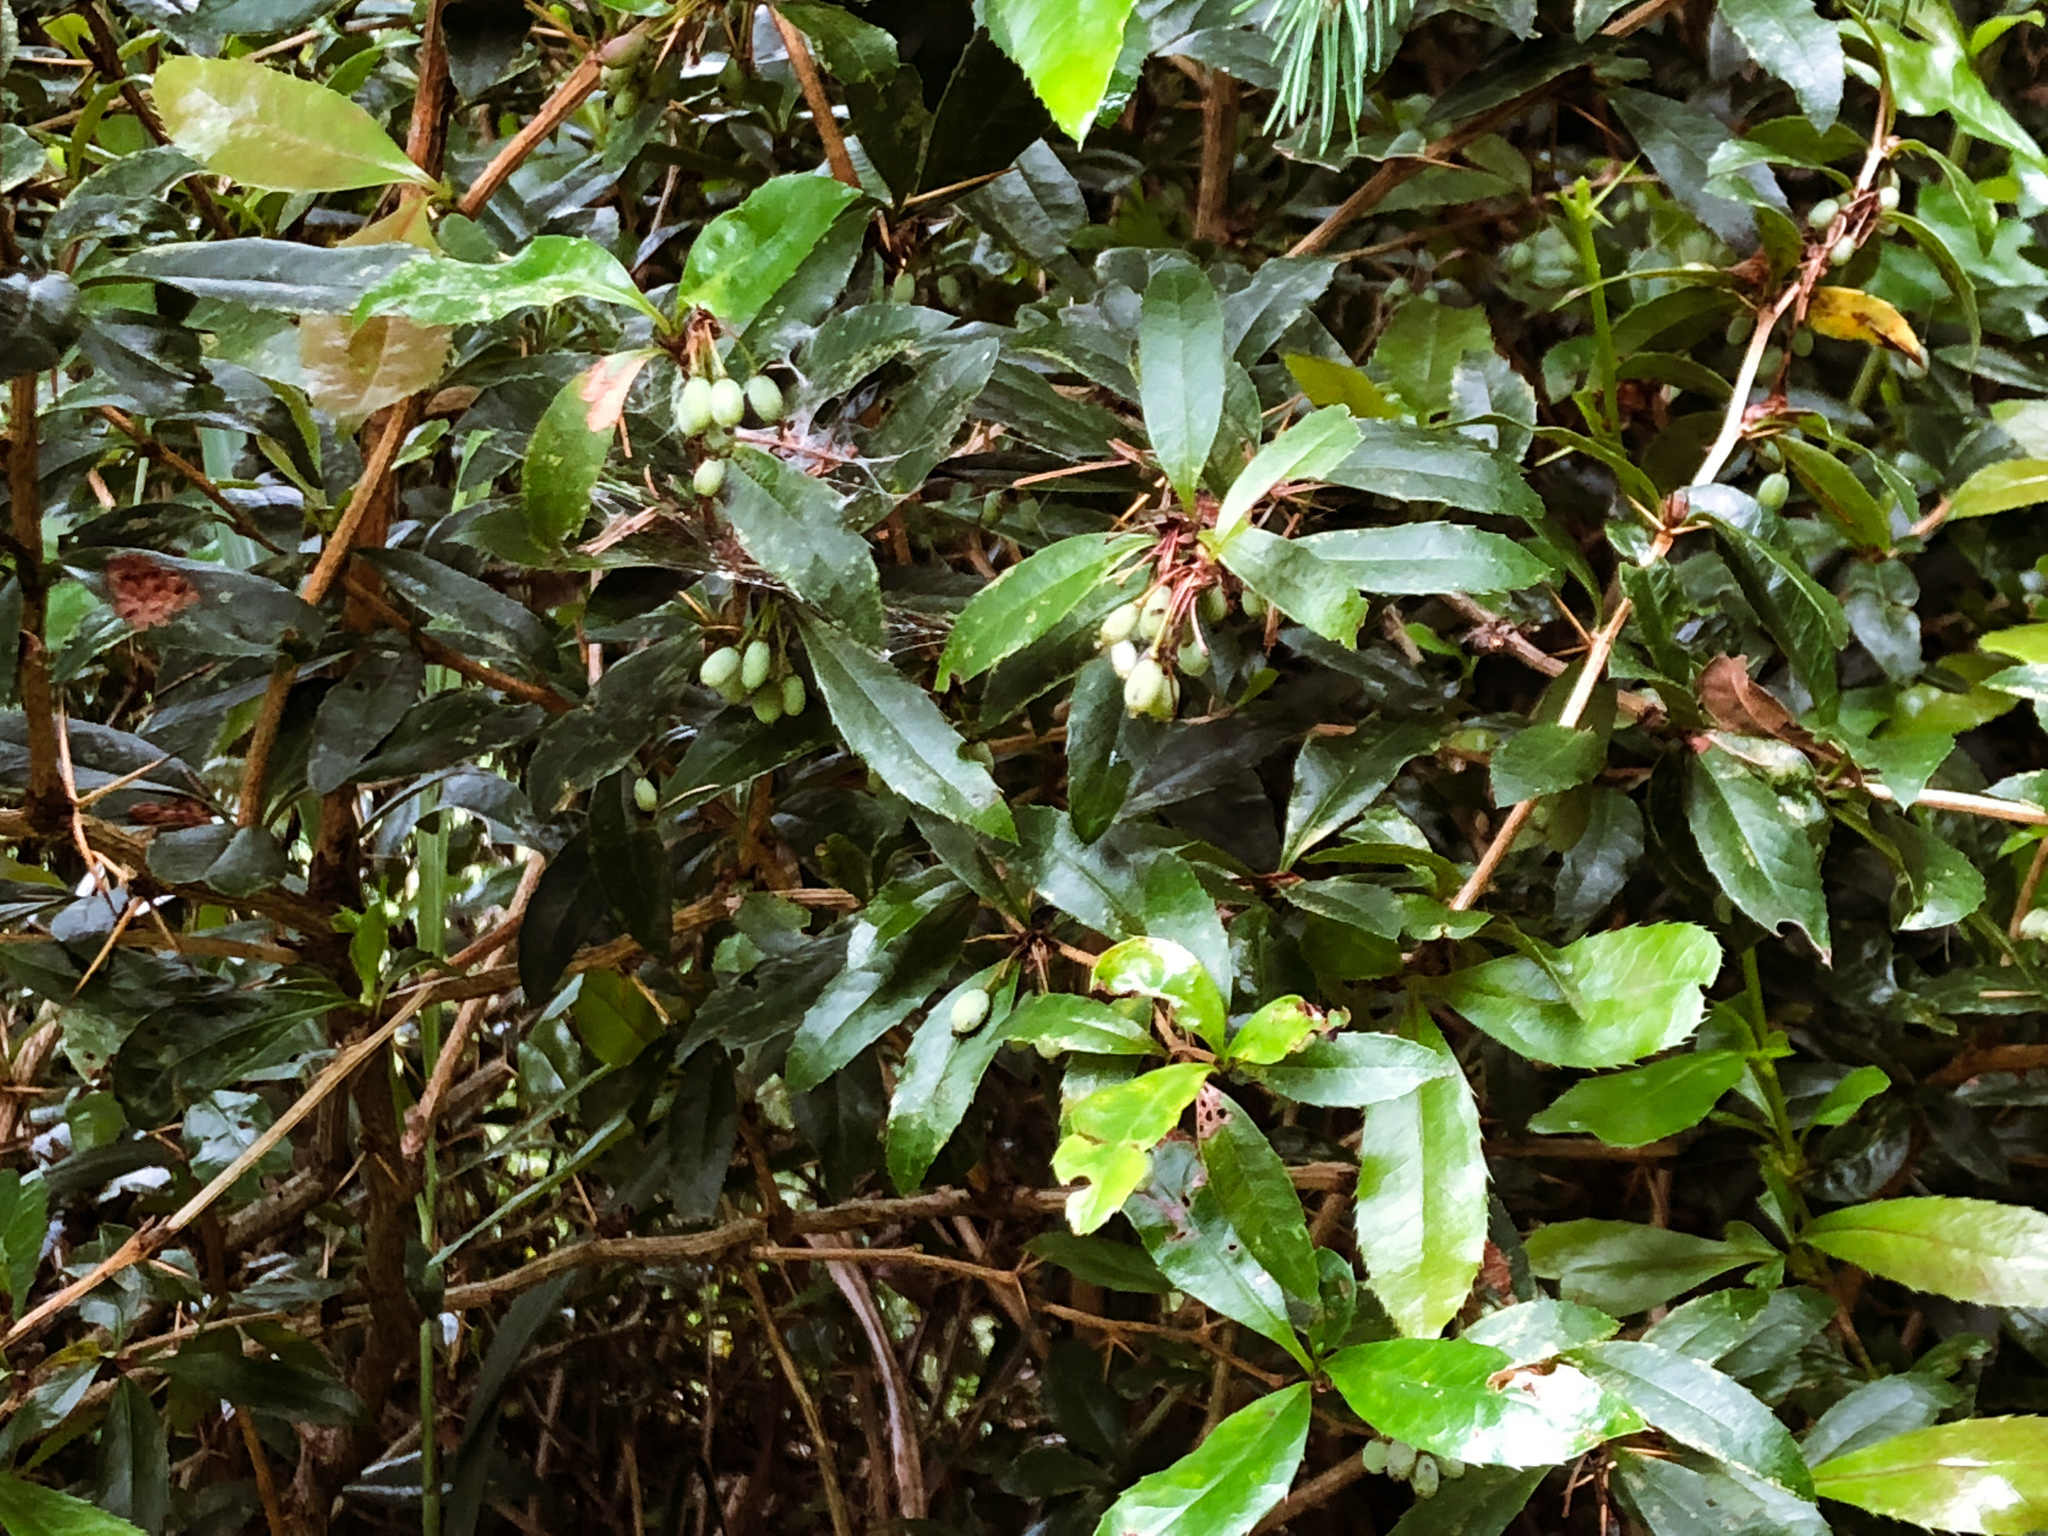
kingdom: Plantae
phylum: Tracheophyta
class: Magnoliopsida
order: Ranunculales
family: Berberidaceae
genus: Berberis
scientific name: Berberis kawakamii
